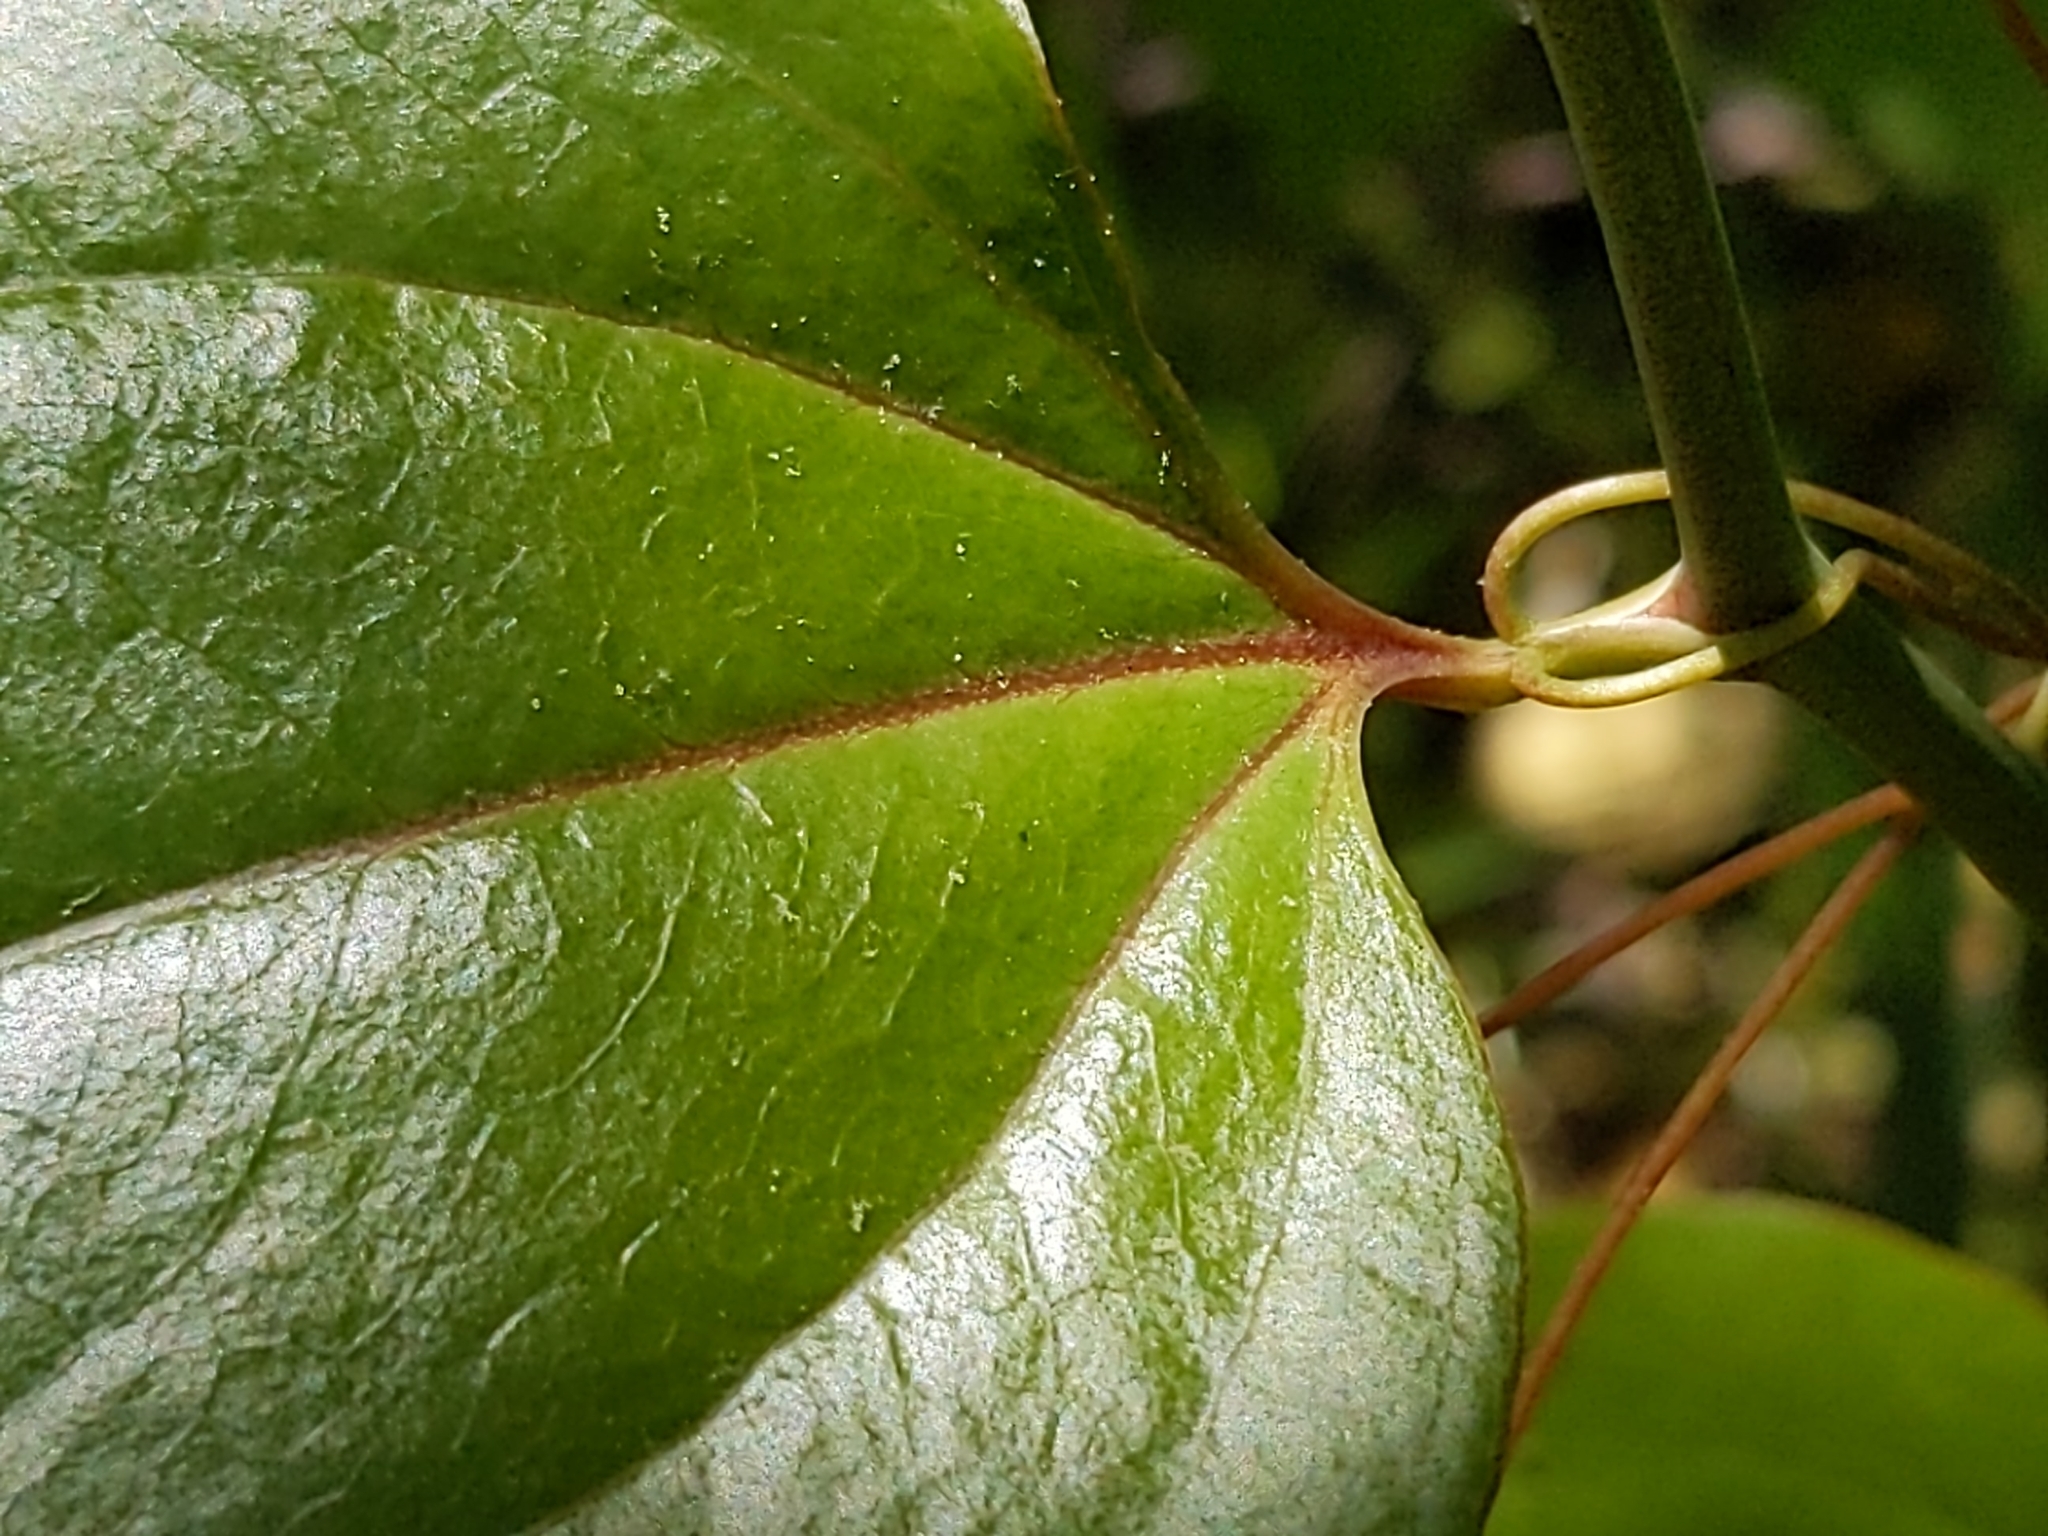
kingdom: Plantae
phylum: Tracheophyta
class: Liliopsida
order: Liliales
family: Smilacaceae
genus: Smilax
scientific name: Smilax rotundifolia
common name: Bullbriar
